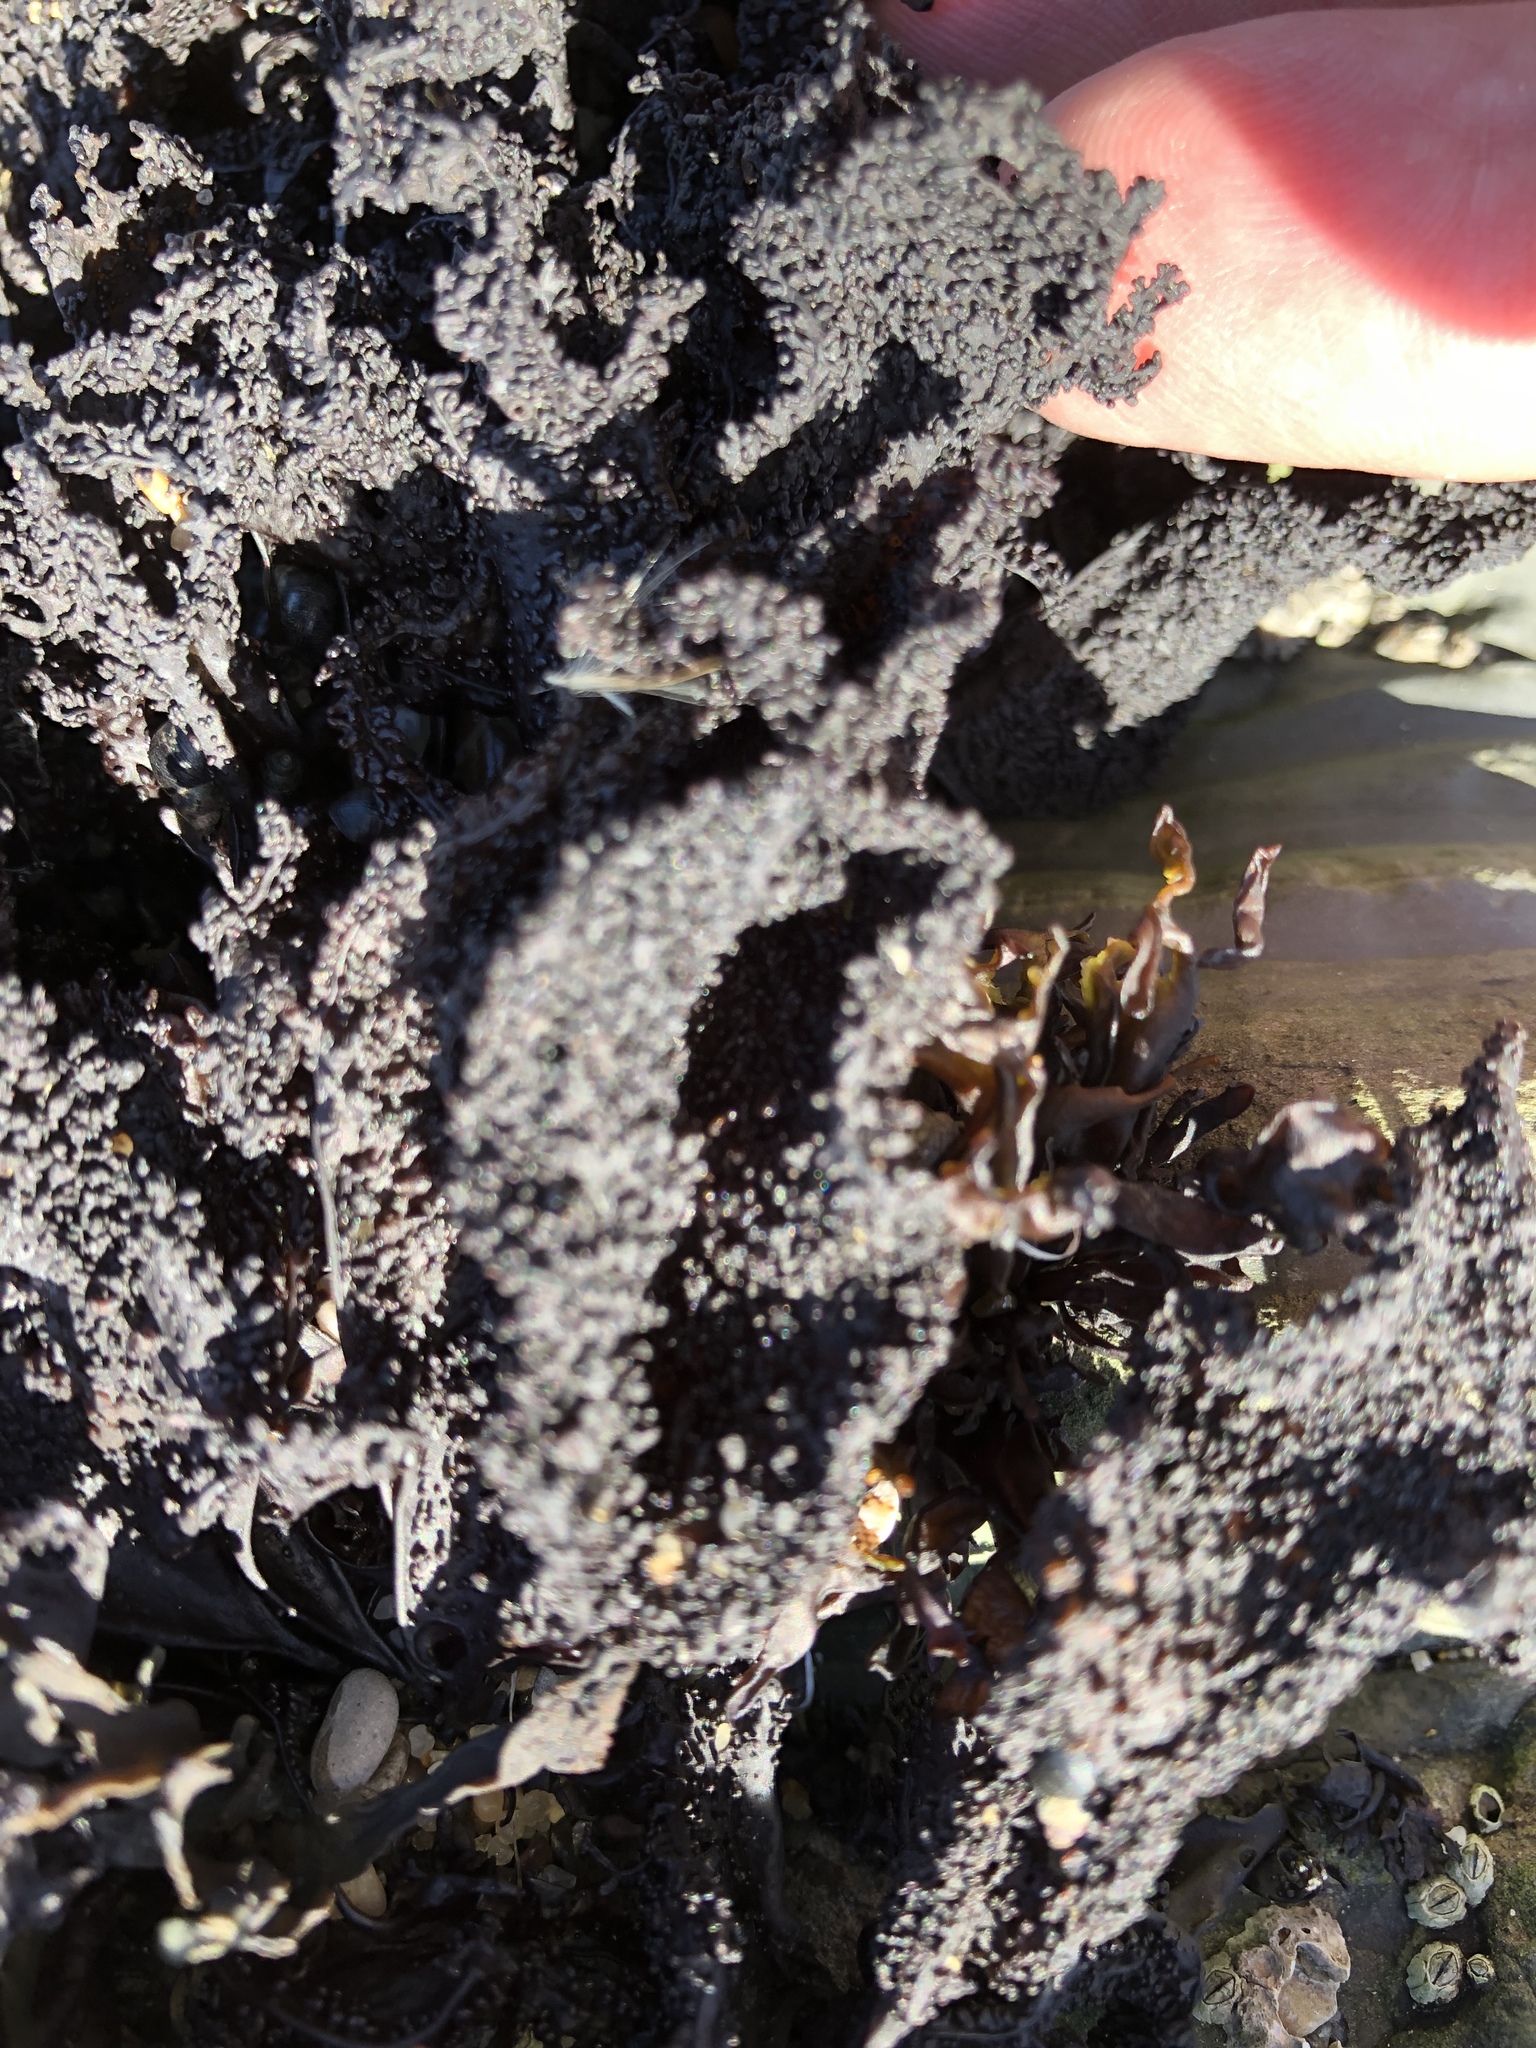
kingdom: Plantae
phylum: Rhodophyta
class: Florideophyceae
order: Gigartinales
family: Phyllophoraceae
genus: Mastocarpus
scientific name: Mastocarpus papillatus
